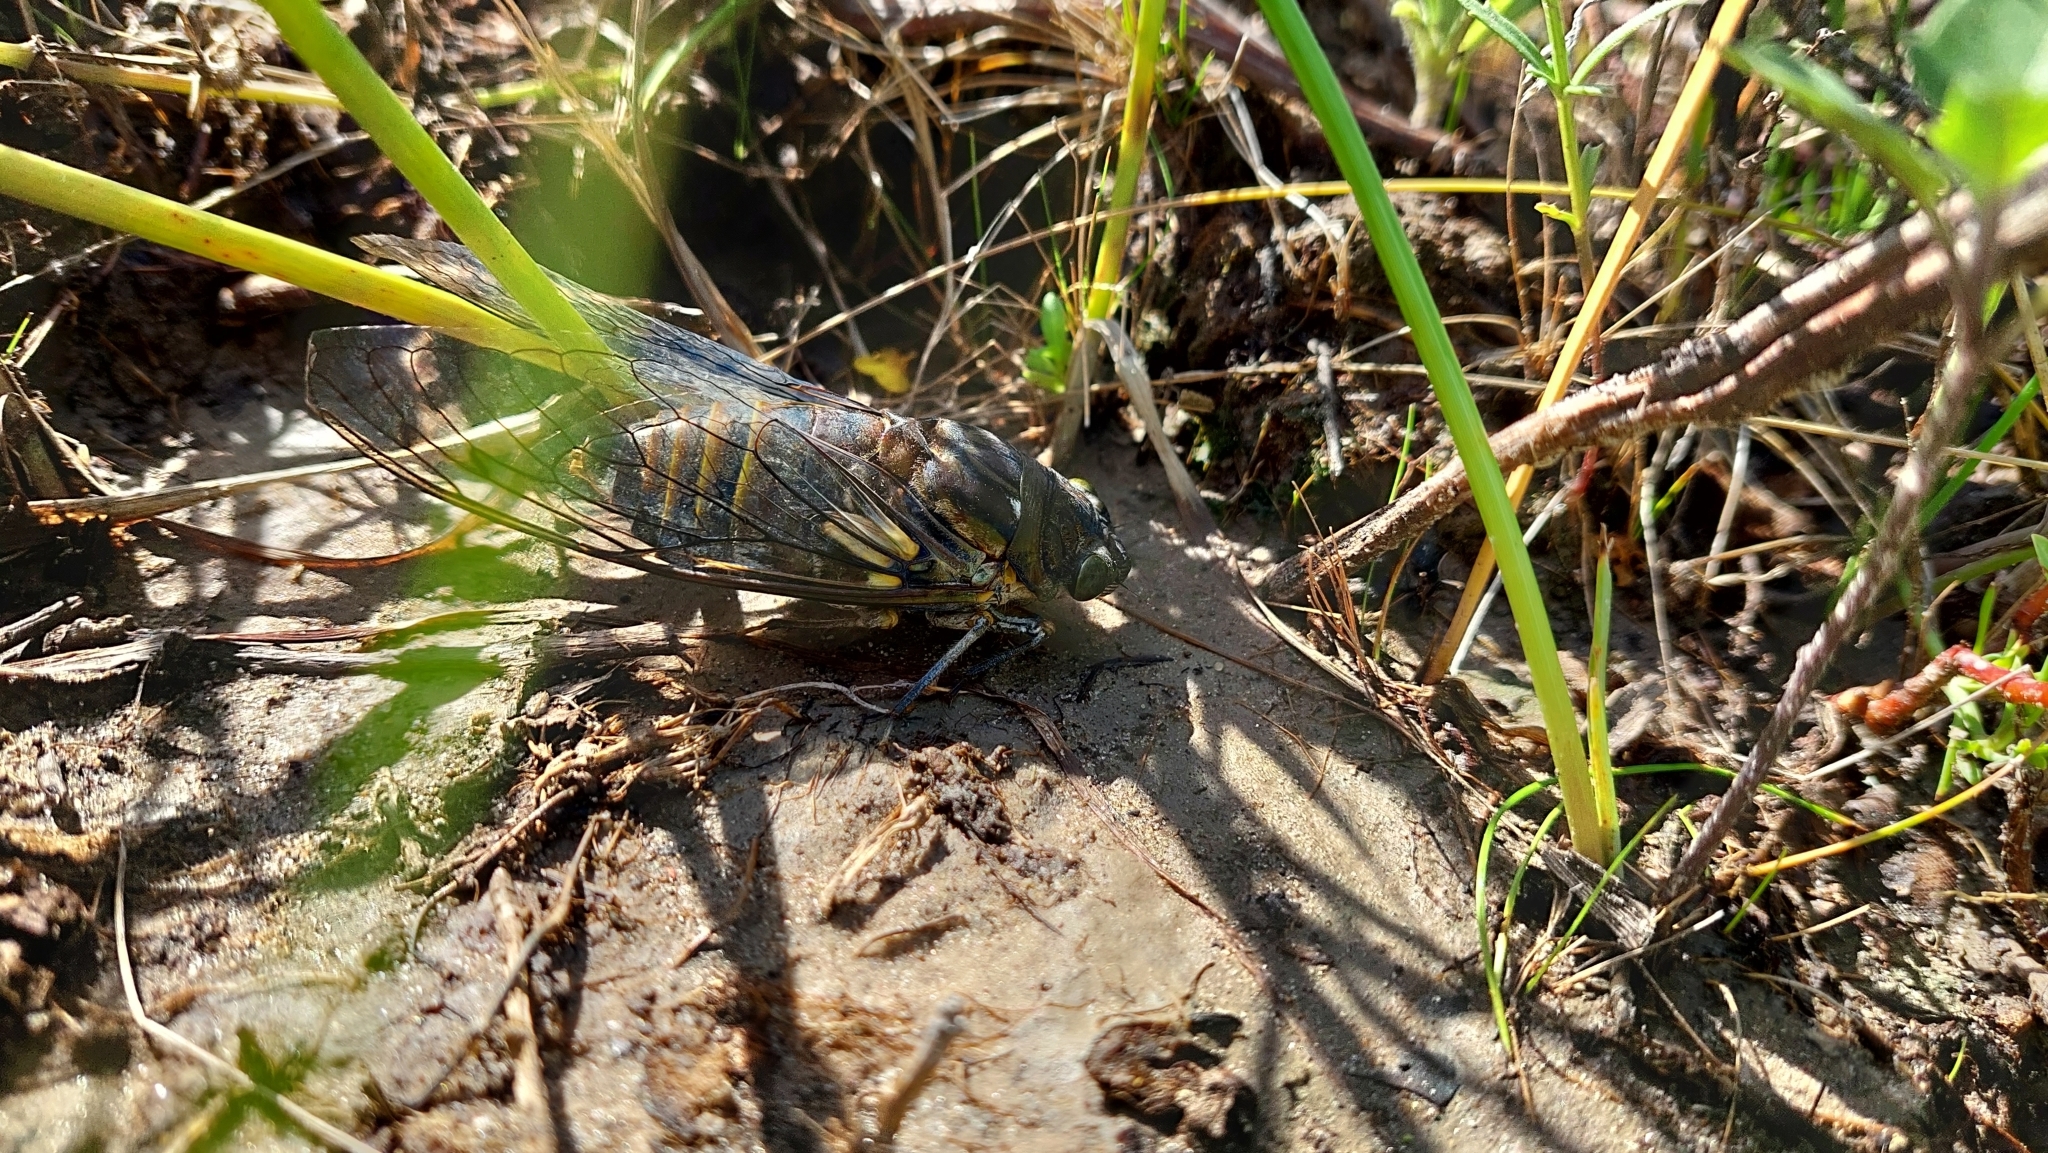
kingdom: Animalia
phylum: Arthropoda
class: Insecta
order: Hemiptera
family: Cicadidae
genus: Quesada
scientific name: Quesada gigas
